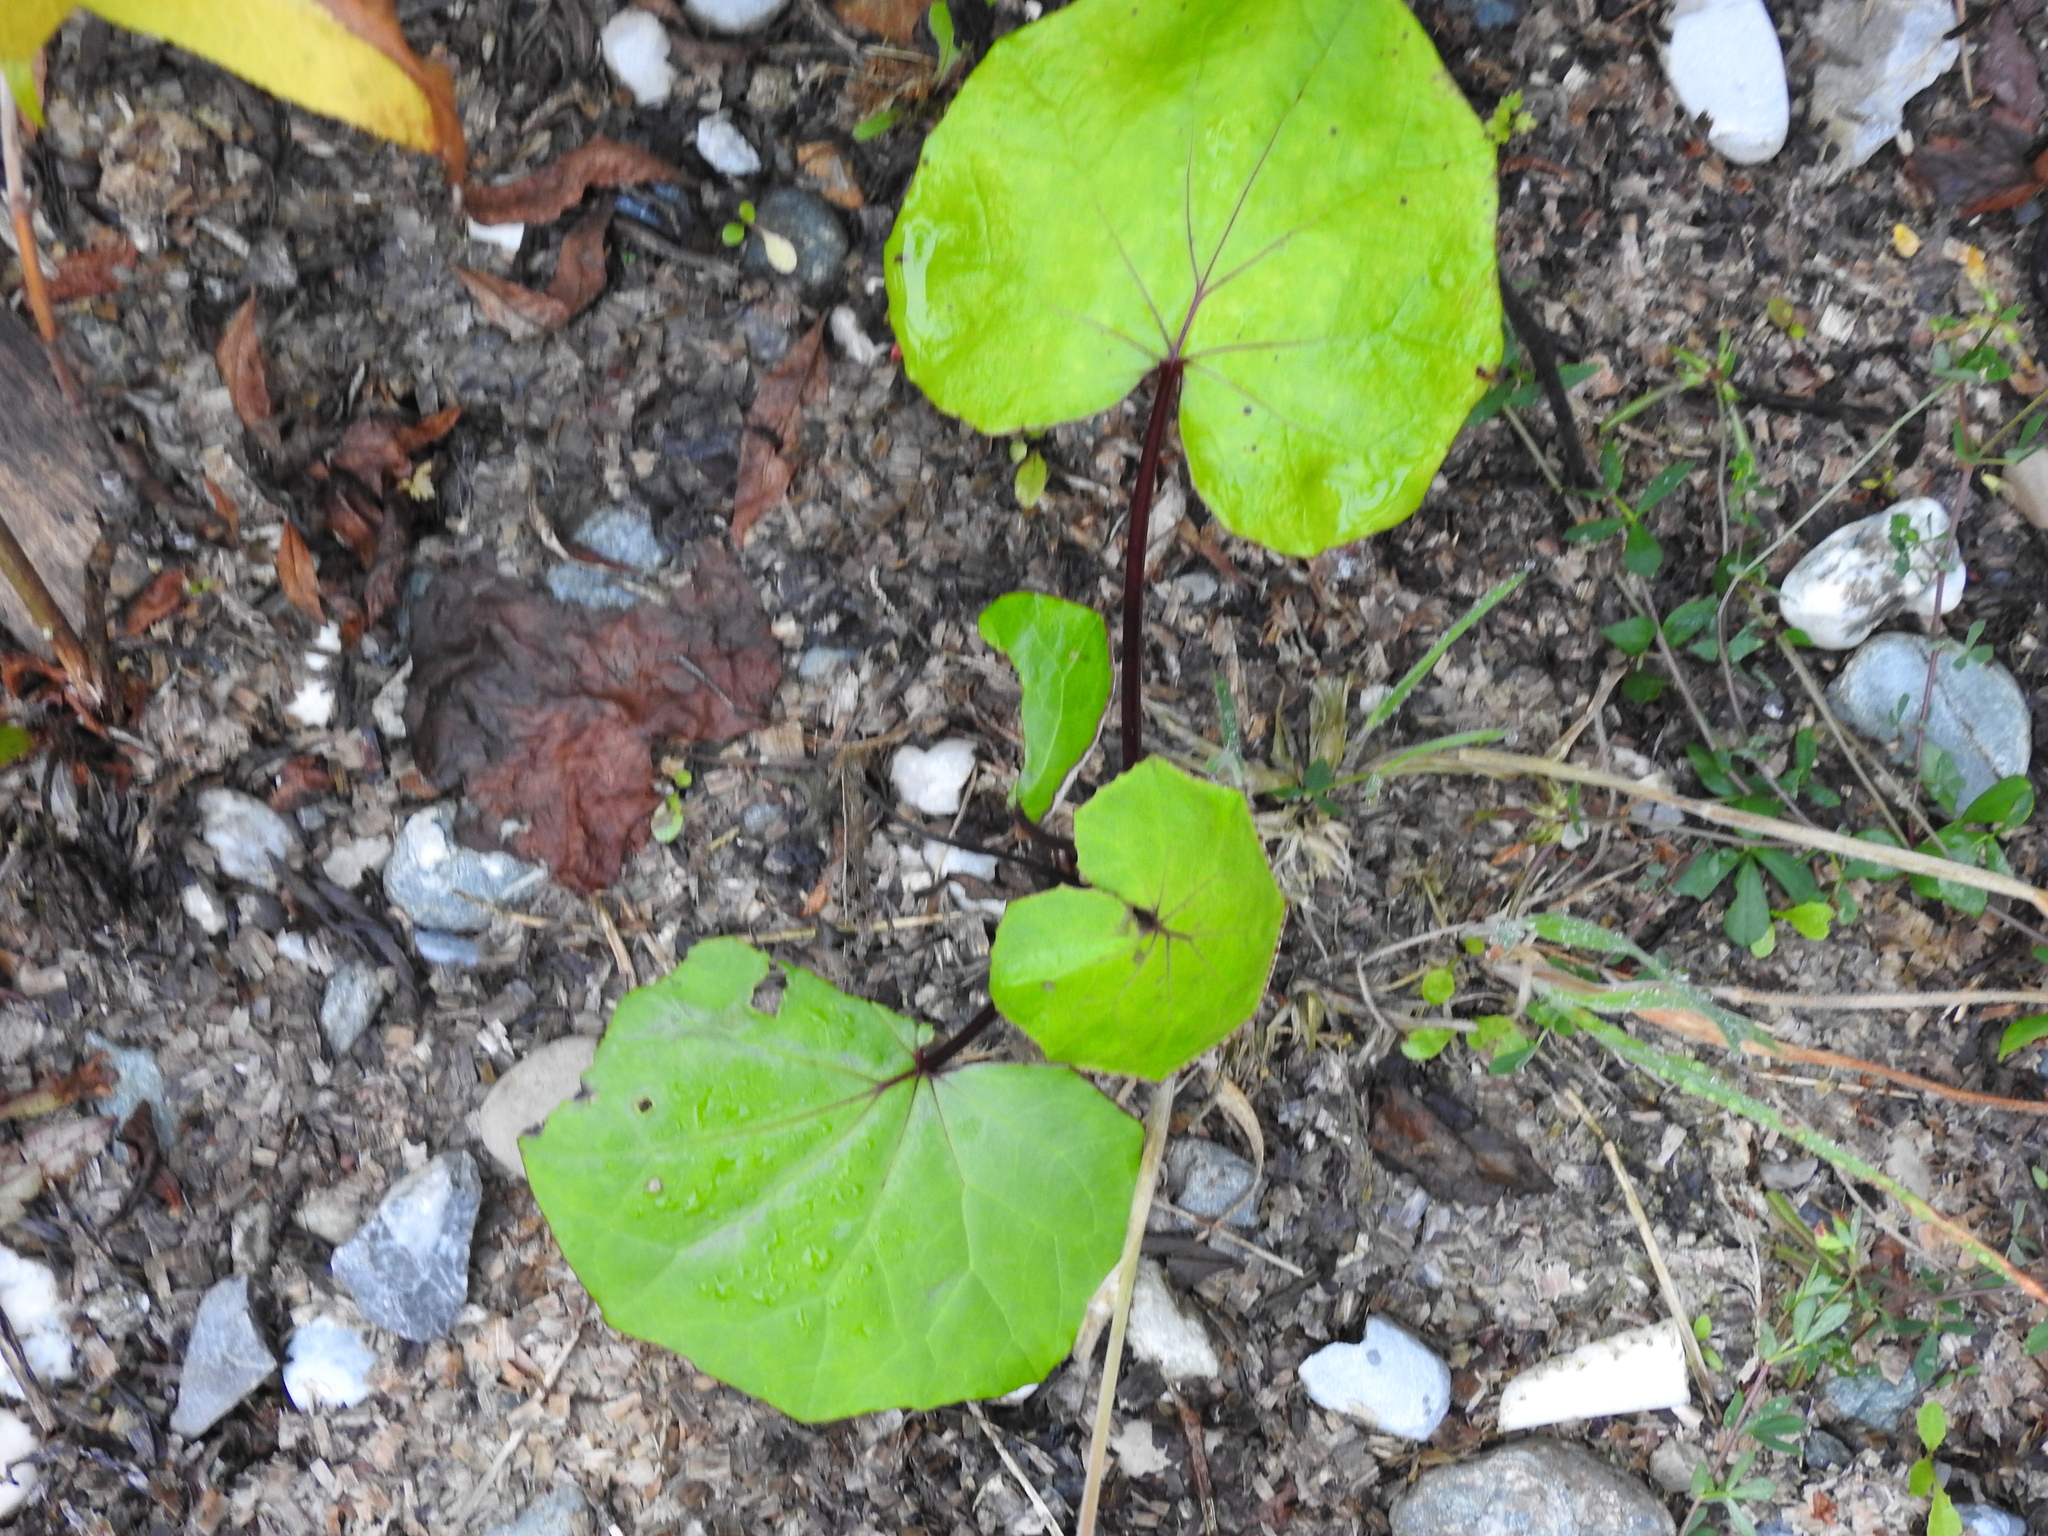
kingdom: Plantae
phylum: Tracheophyta
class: Magnoliopsida
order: Asterales
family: Asteraceae
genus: Tussilago
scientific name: Tussilago farfara
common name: Coltsfoot
